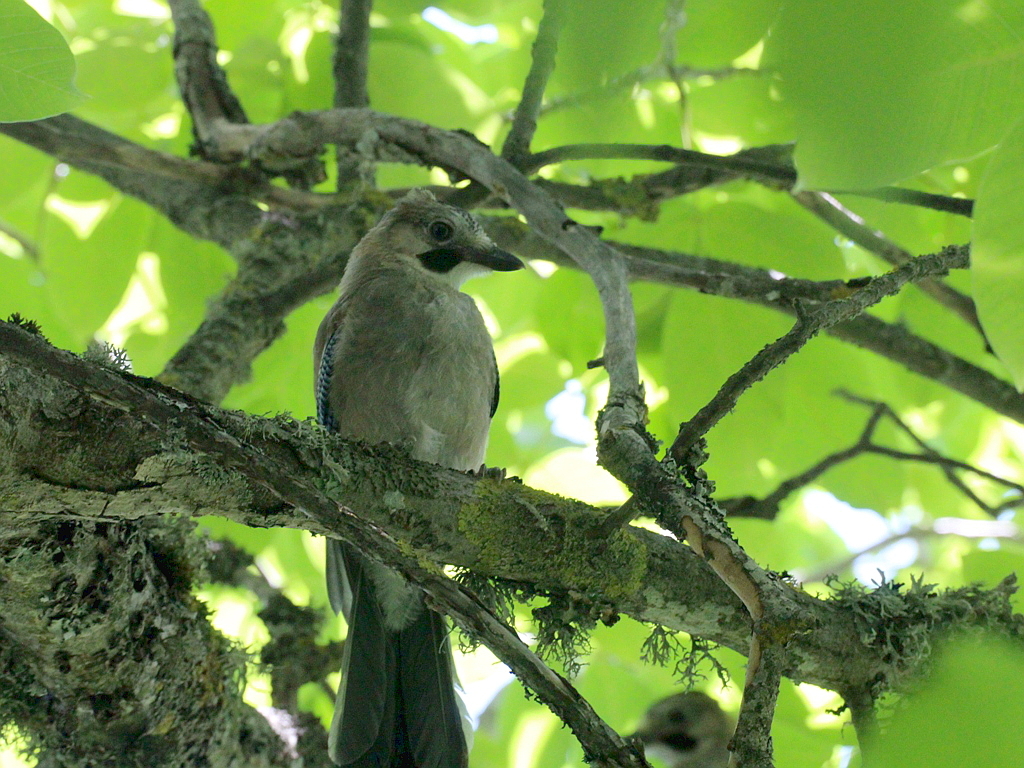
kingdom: Animalia
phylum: Chordata
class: Aves
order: Passeriformes
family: Corvidae
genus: Garrulus
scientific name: Garrulus glandarius
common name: Eurasian jay
